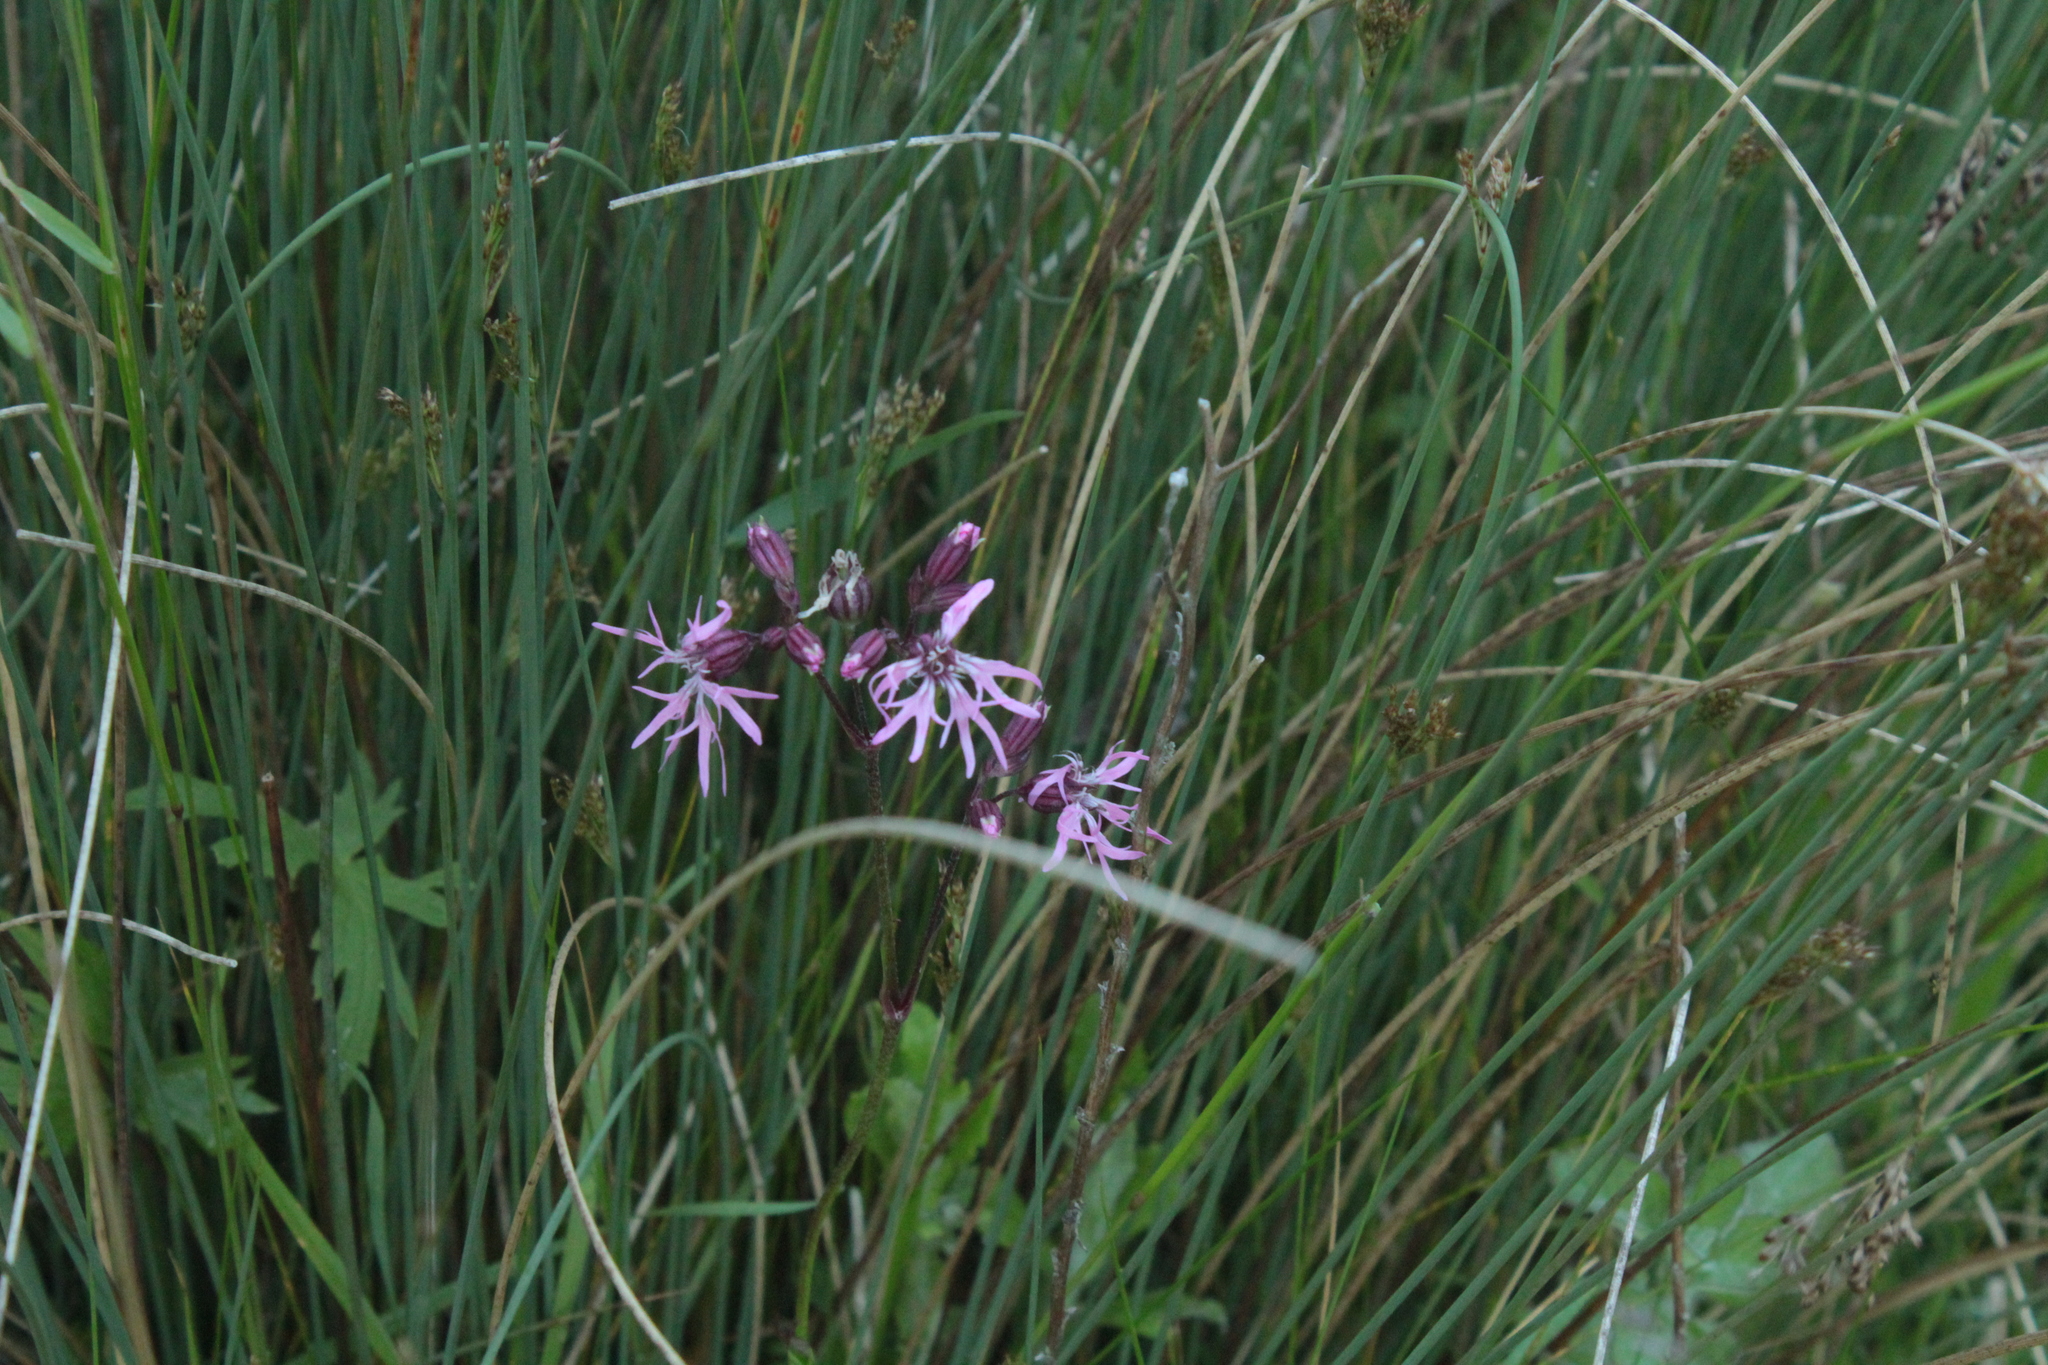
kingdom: Plantae
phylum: Tracheophyta
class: Magnoliopsida
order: Caryophyllales
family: Caryophyllaceae
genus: Silene
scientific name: Silene flos-cuculi
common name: Ragged-robin
